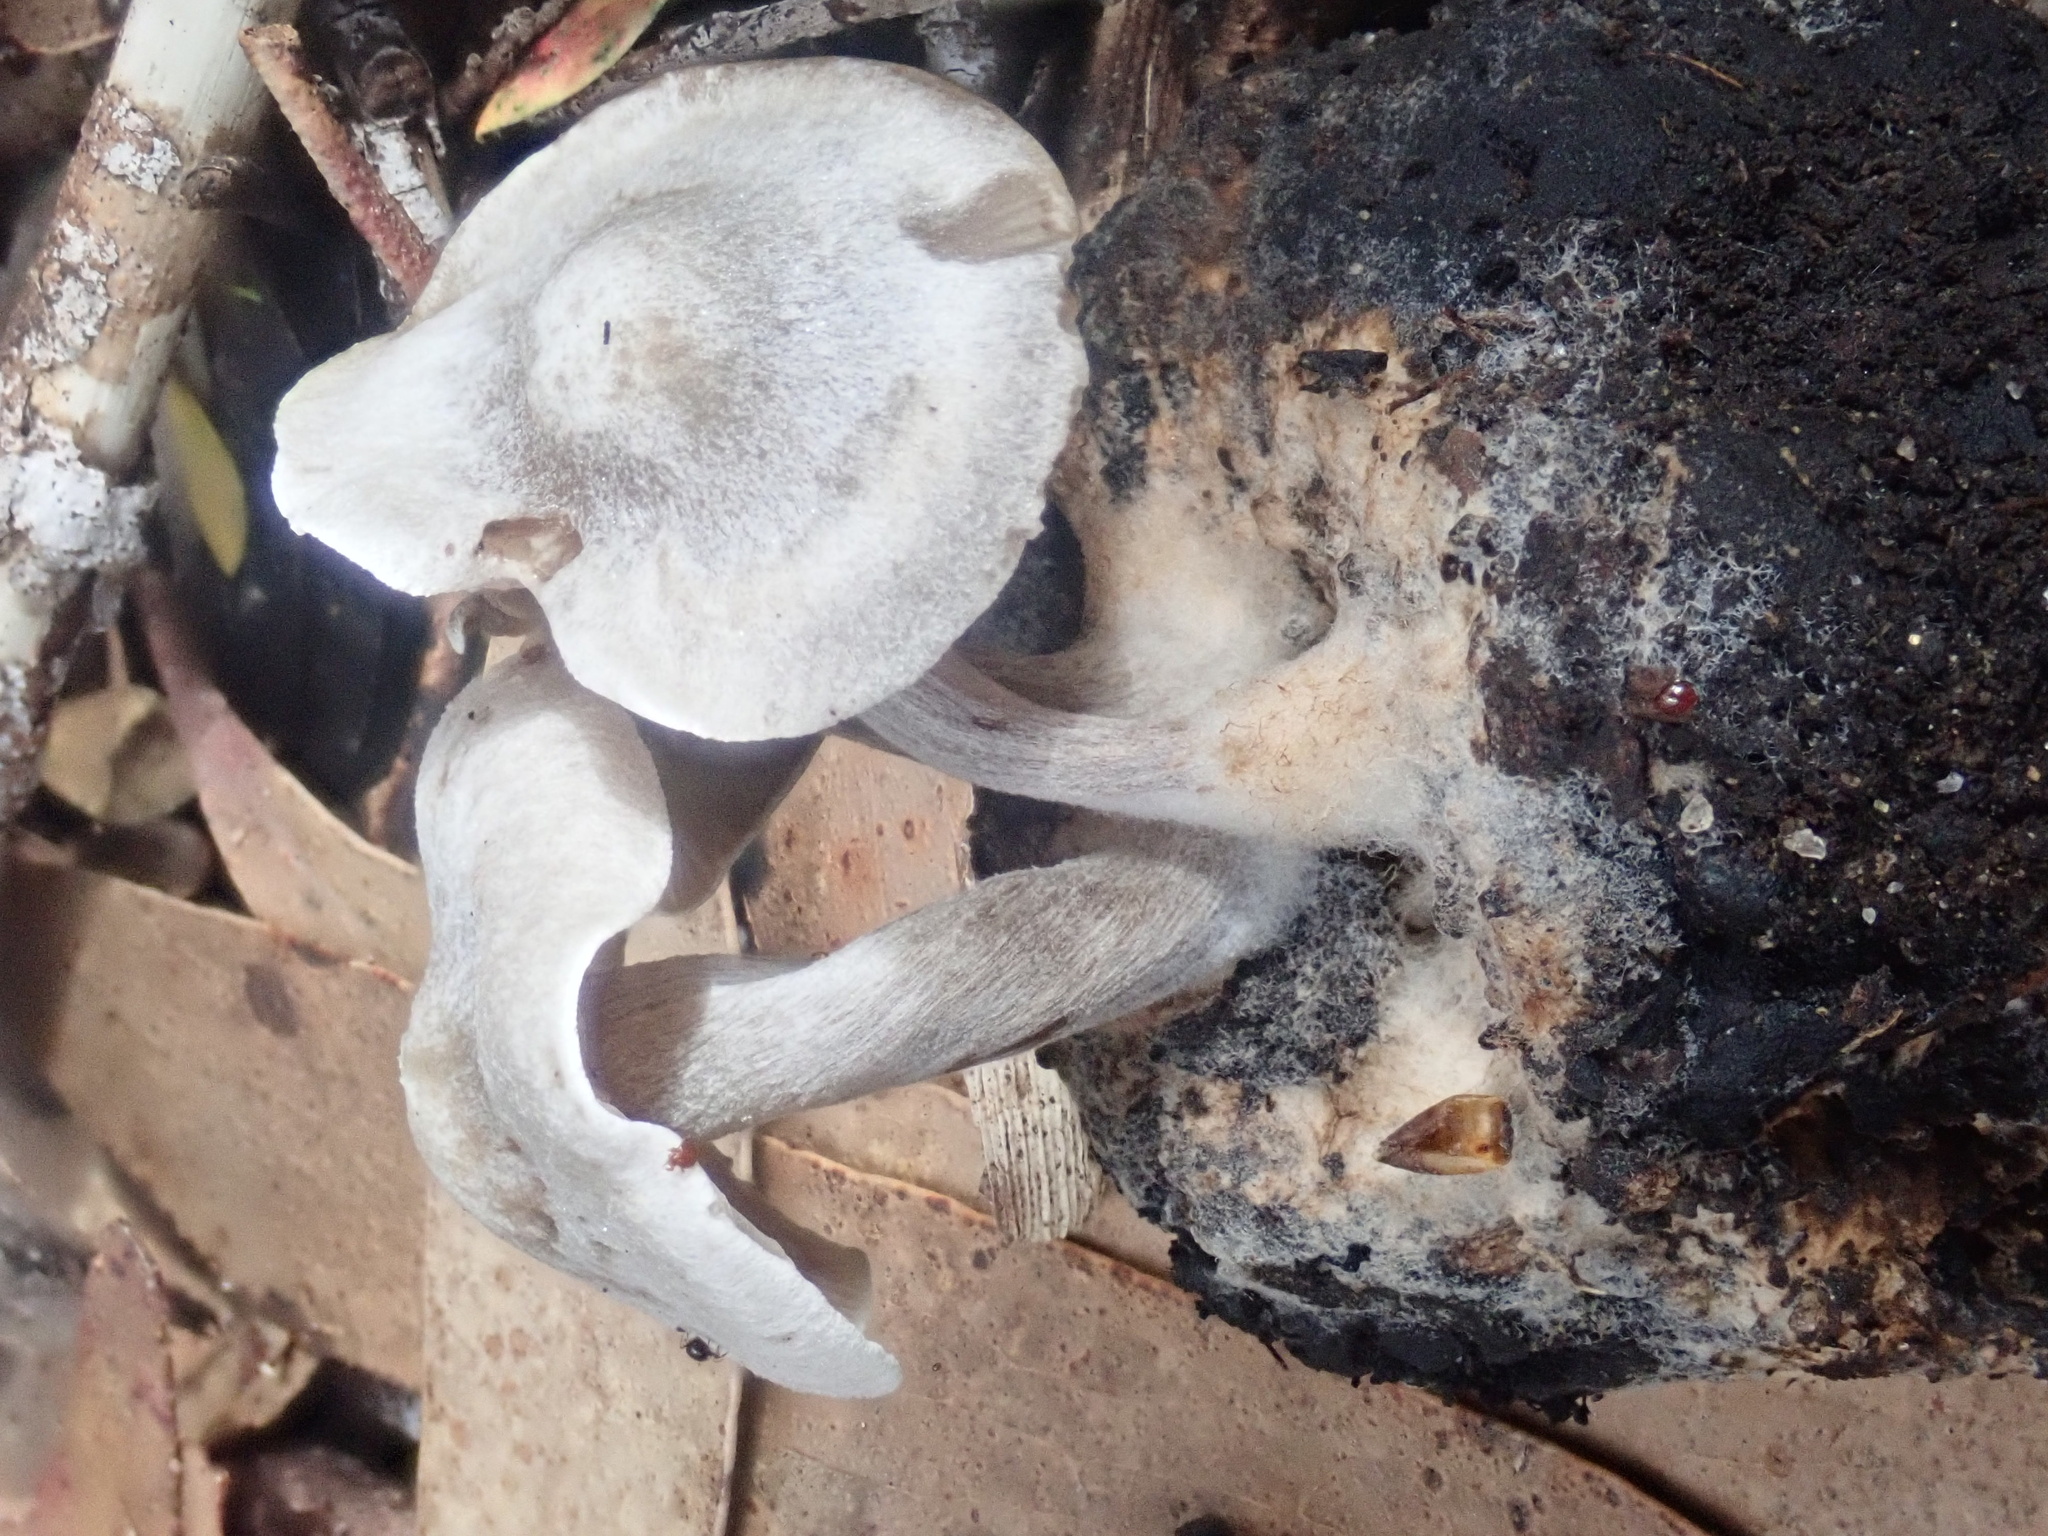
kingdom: Fungi
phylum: Basidiomycota
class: Agaricomycetes
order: Agaricales
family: Lyophyllaceae
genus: Asterophora
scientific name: Asterophora mirabilis
